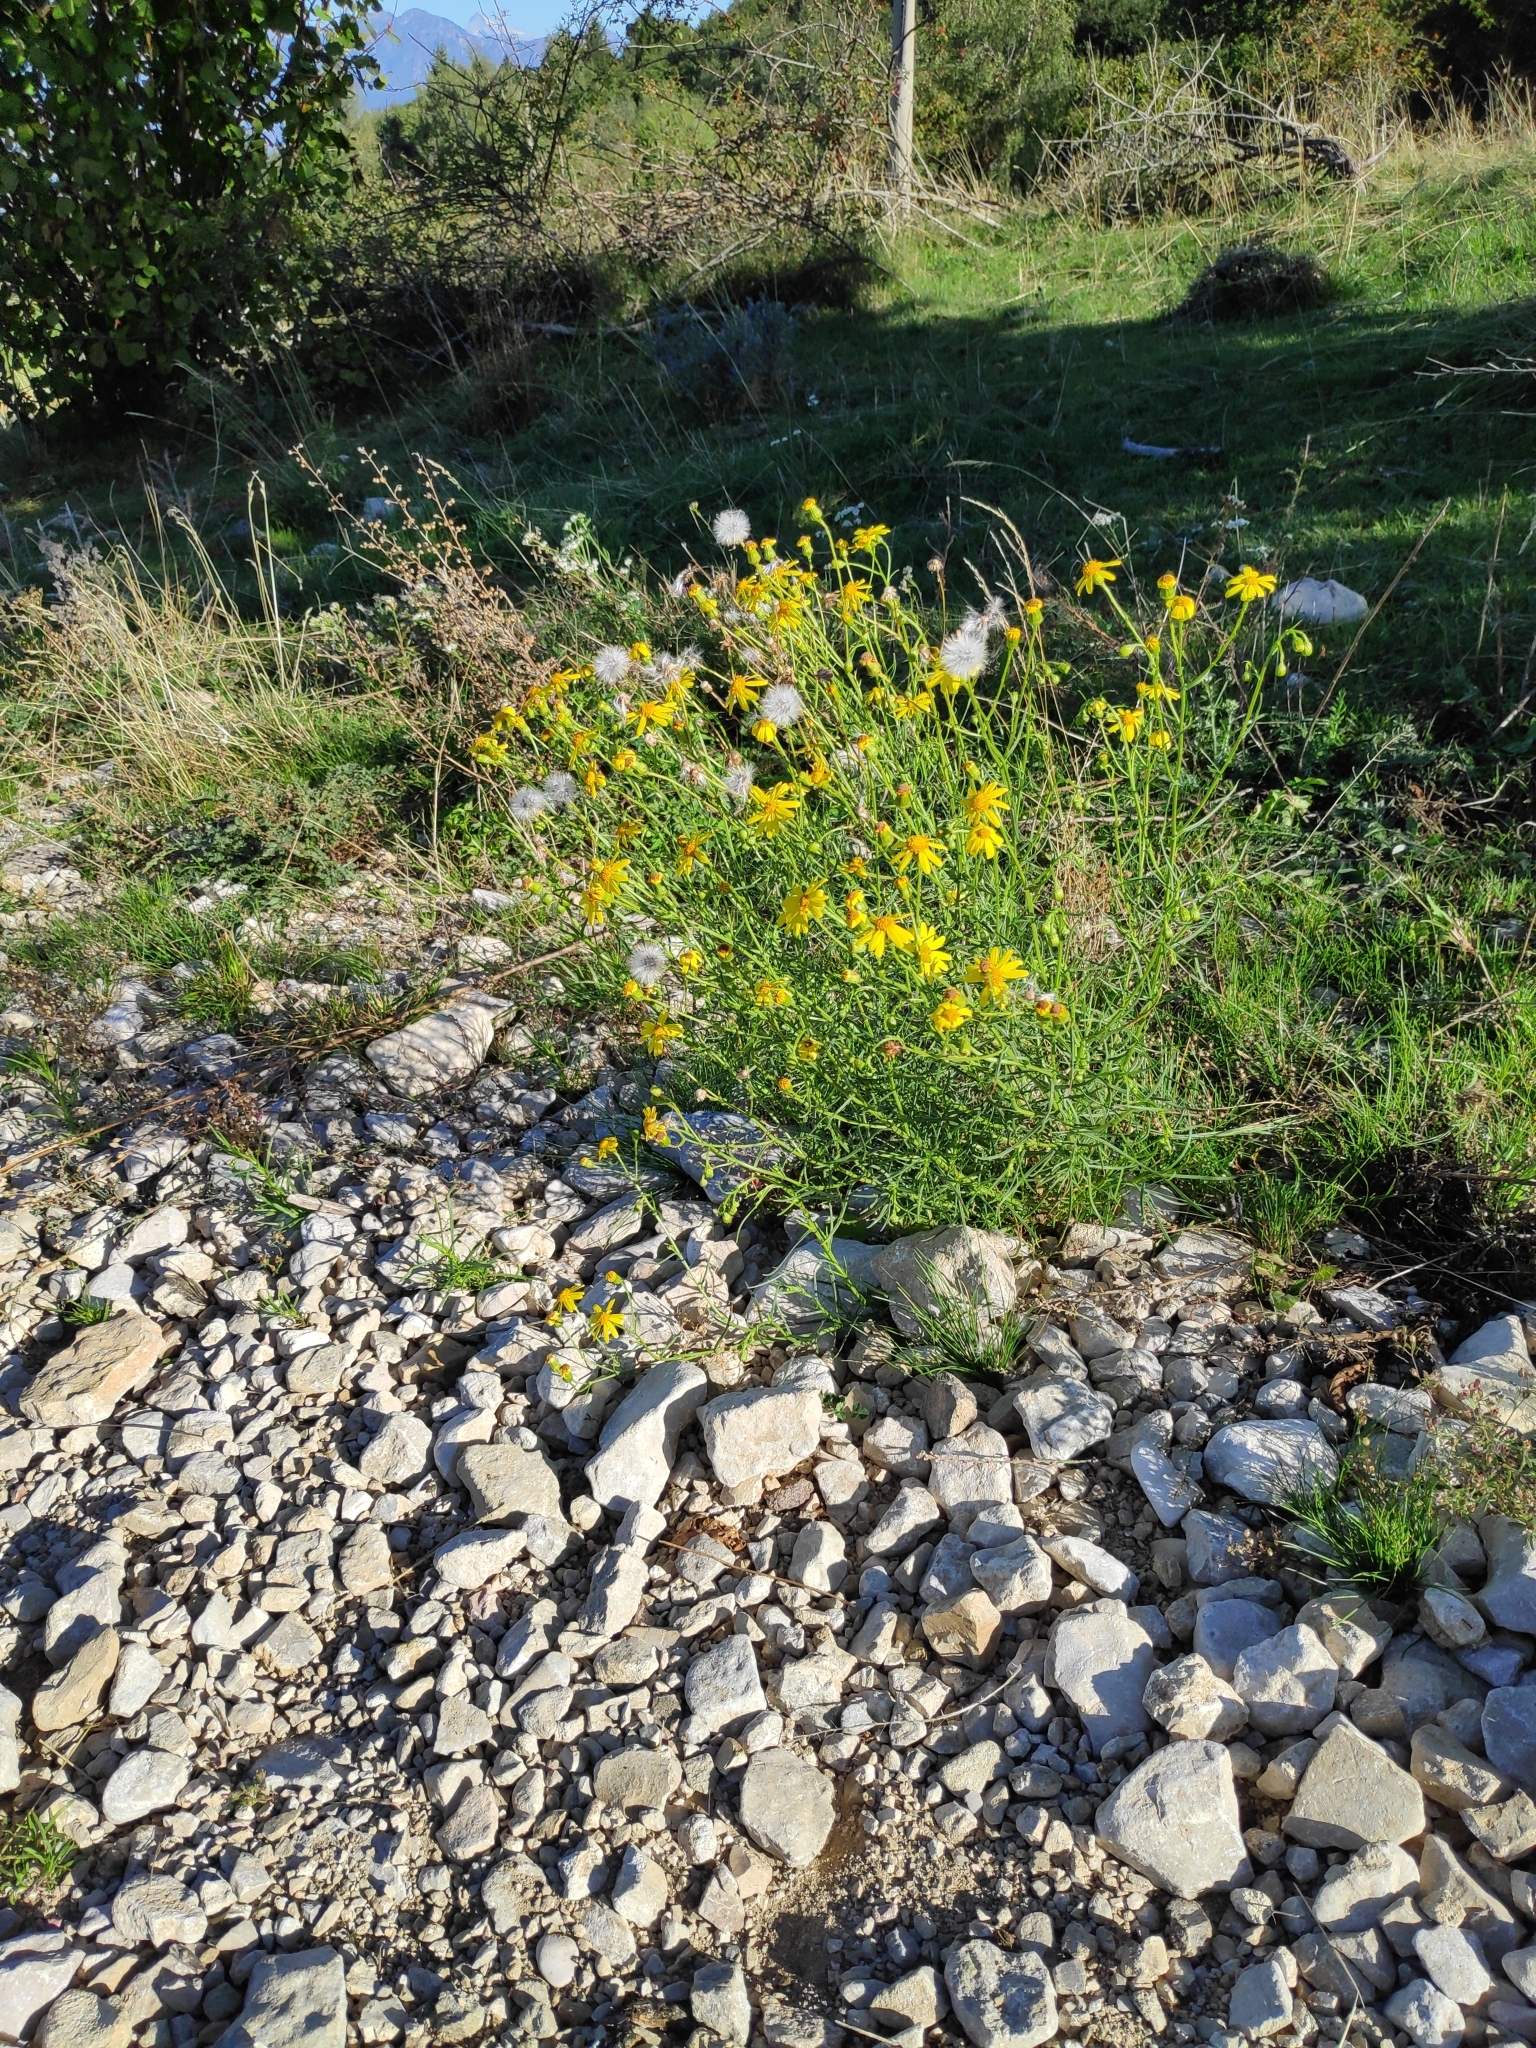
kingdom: Plantae
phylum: Tracheophyta
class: Magnoliopsida
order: Asterales
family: Asteraceae
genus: Senecio
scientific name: Senecio inaequidens
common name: Narrow-leaved ragwort
